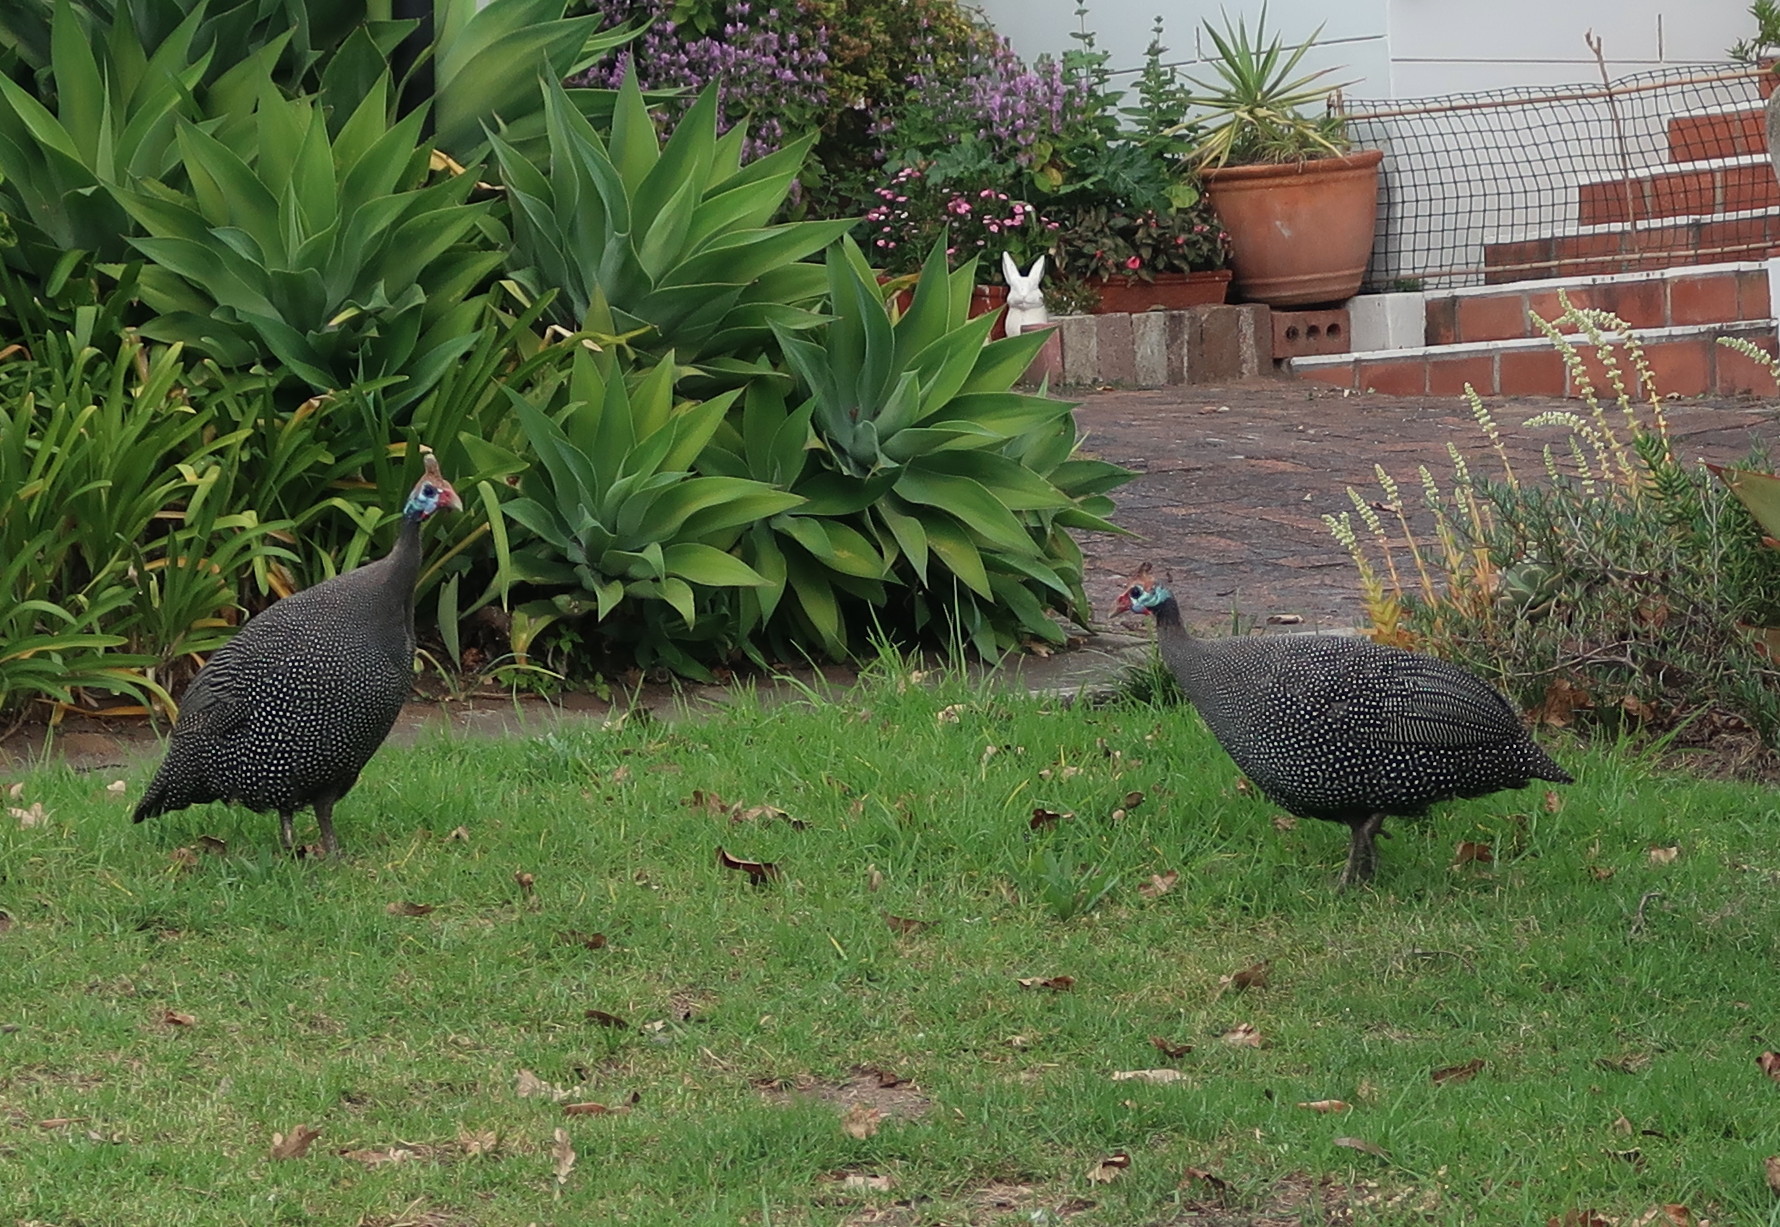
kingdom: Animalia
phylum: Chordata
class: Aves
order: Galliformes
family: Numididae
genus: Numida
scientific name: Numida meleagris
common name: Helmeted guineafowl
